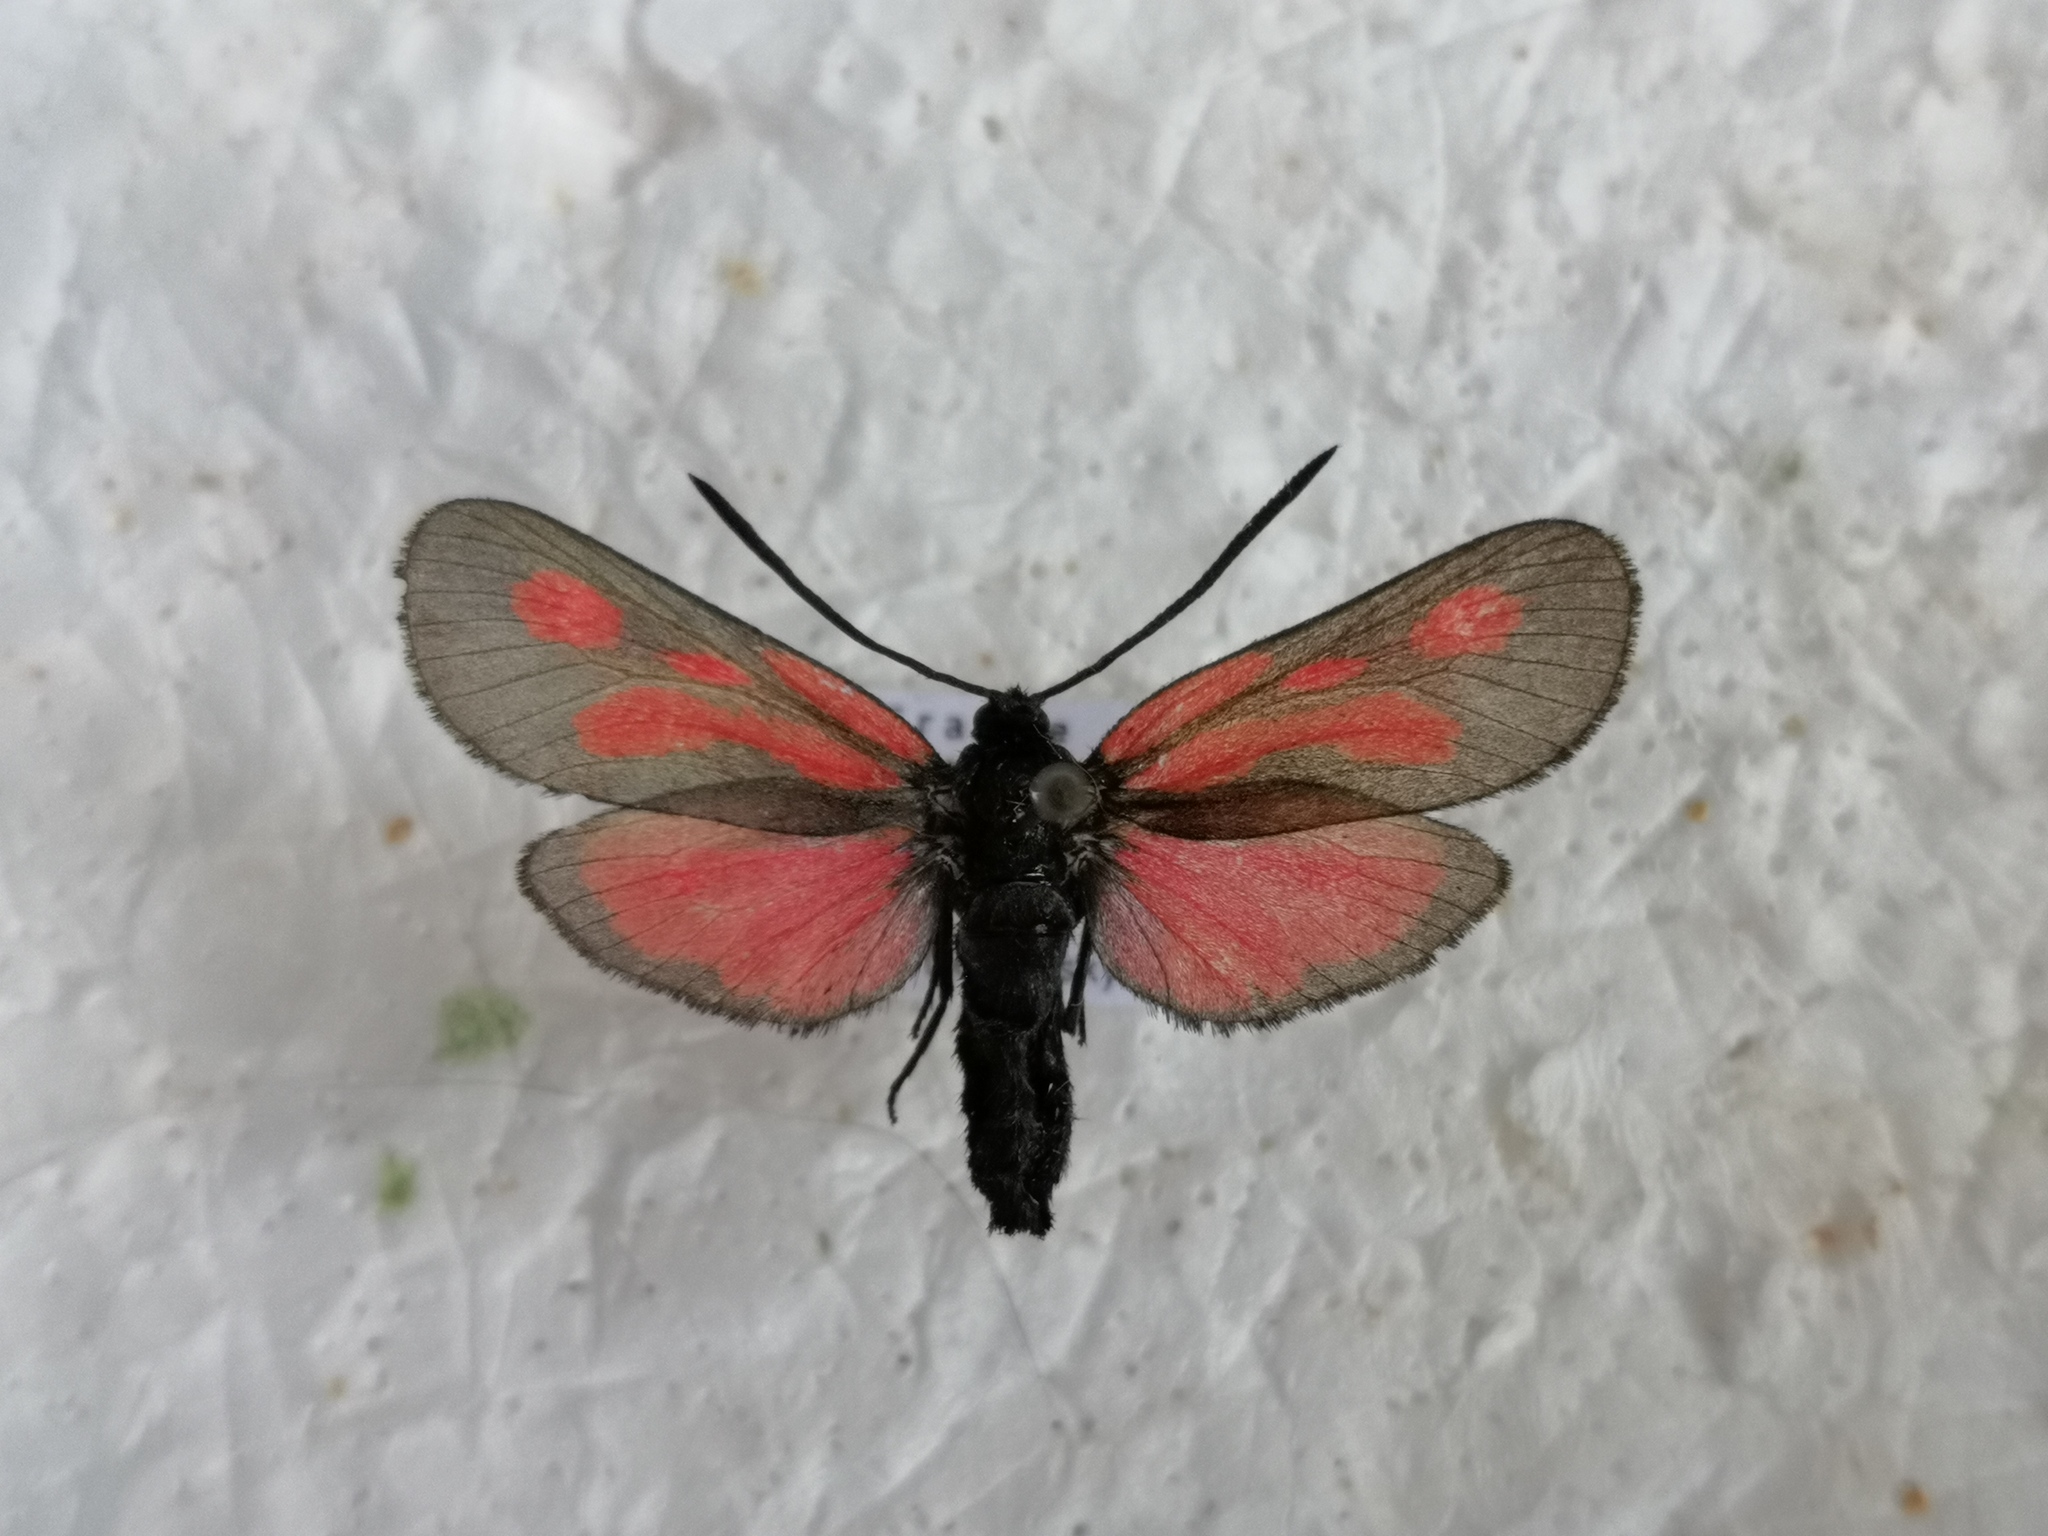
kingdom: Animalia
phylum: Arthropoda
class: Insecta
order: Lepidoptera
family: Zygaenidae
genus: Zygaena
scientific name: Zygaena romeo
